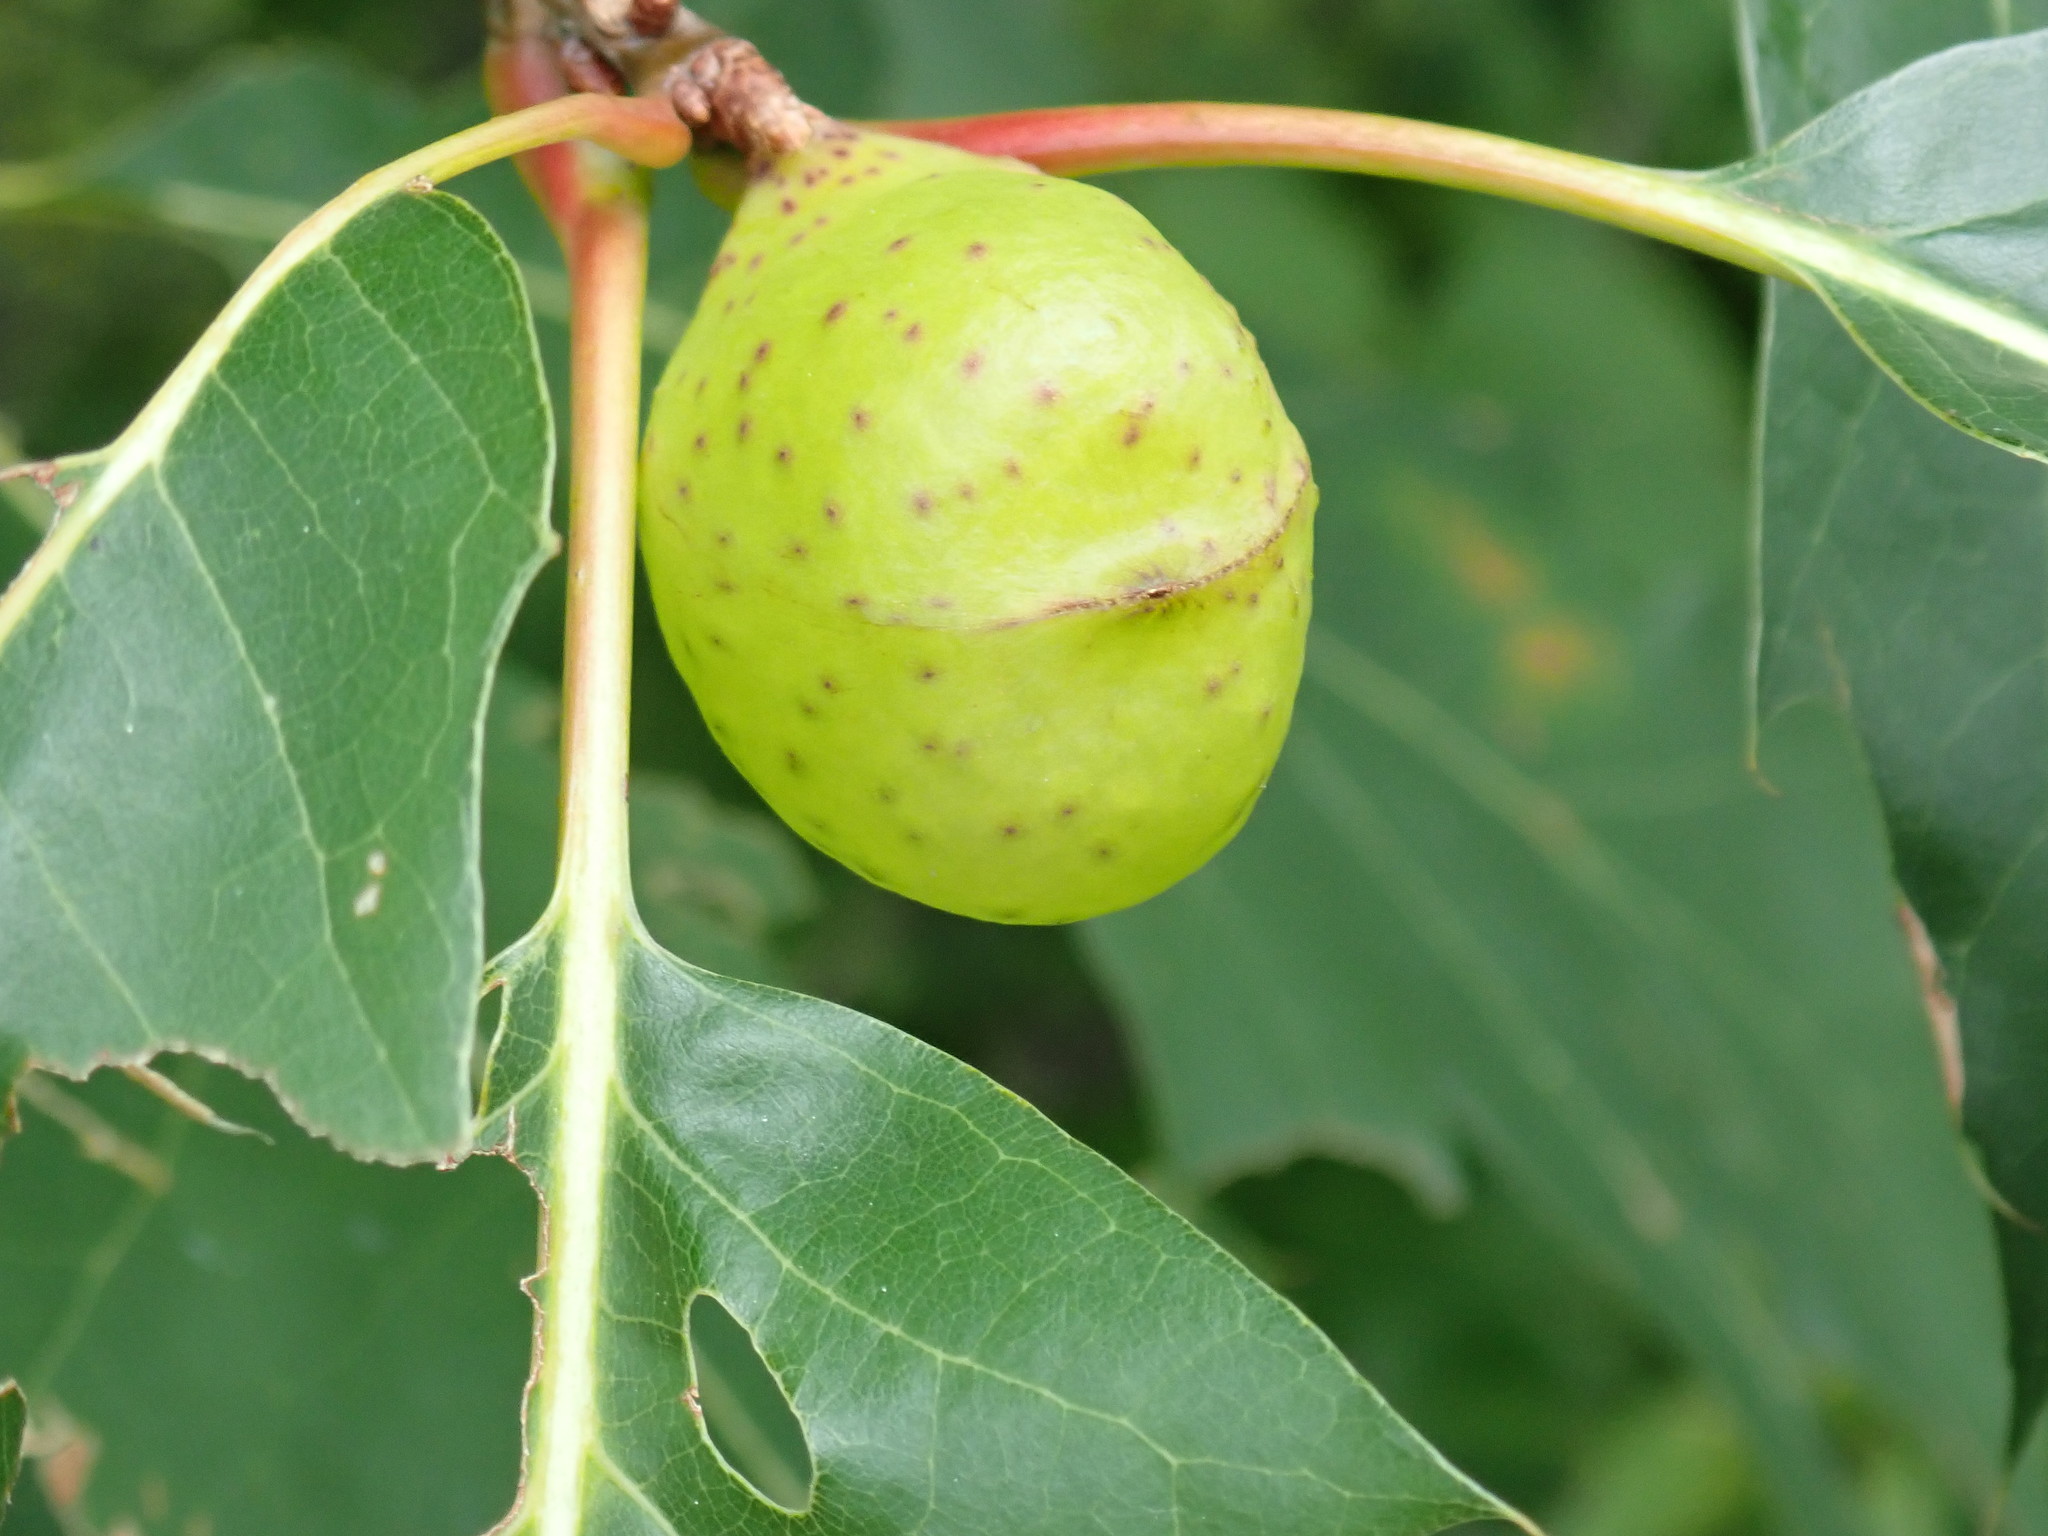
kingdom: Animalia
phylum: Arthropoda
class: Insecta
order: Hymenoptera
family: Cynipidae
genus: Amphibolips
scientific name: Amphibolips
